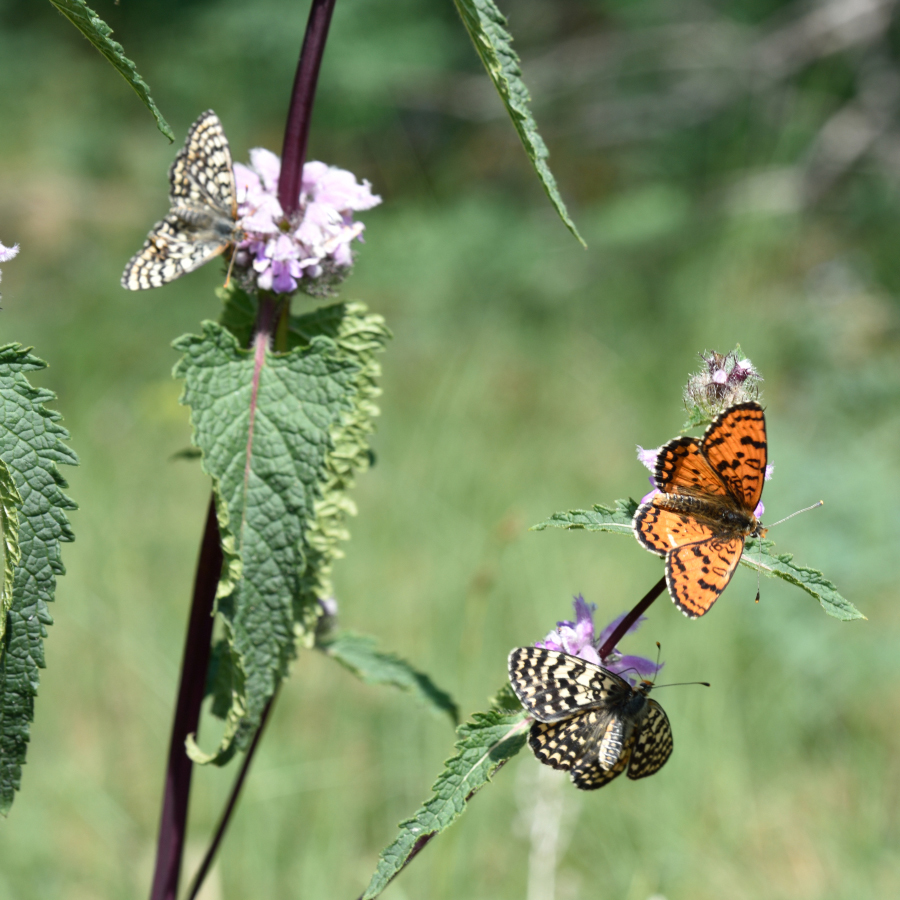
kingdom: Animalia
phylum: Arthropoda
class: Insecta
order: Lepidoptera
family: Nymphalidae
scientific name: Nymphalidae
